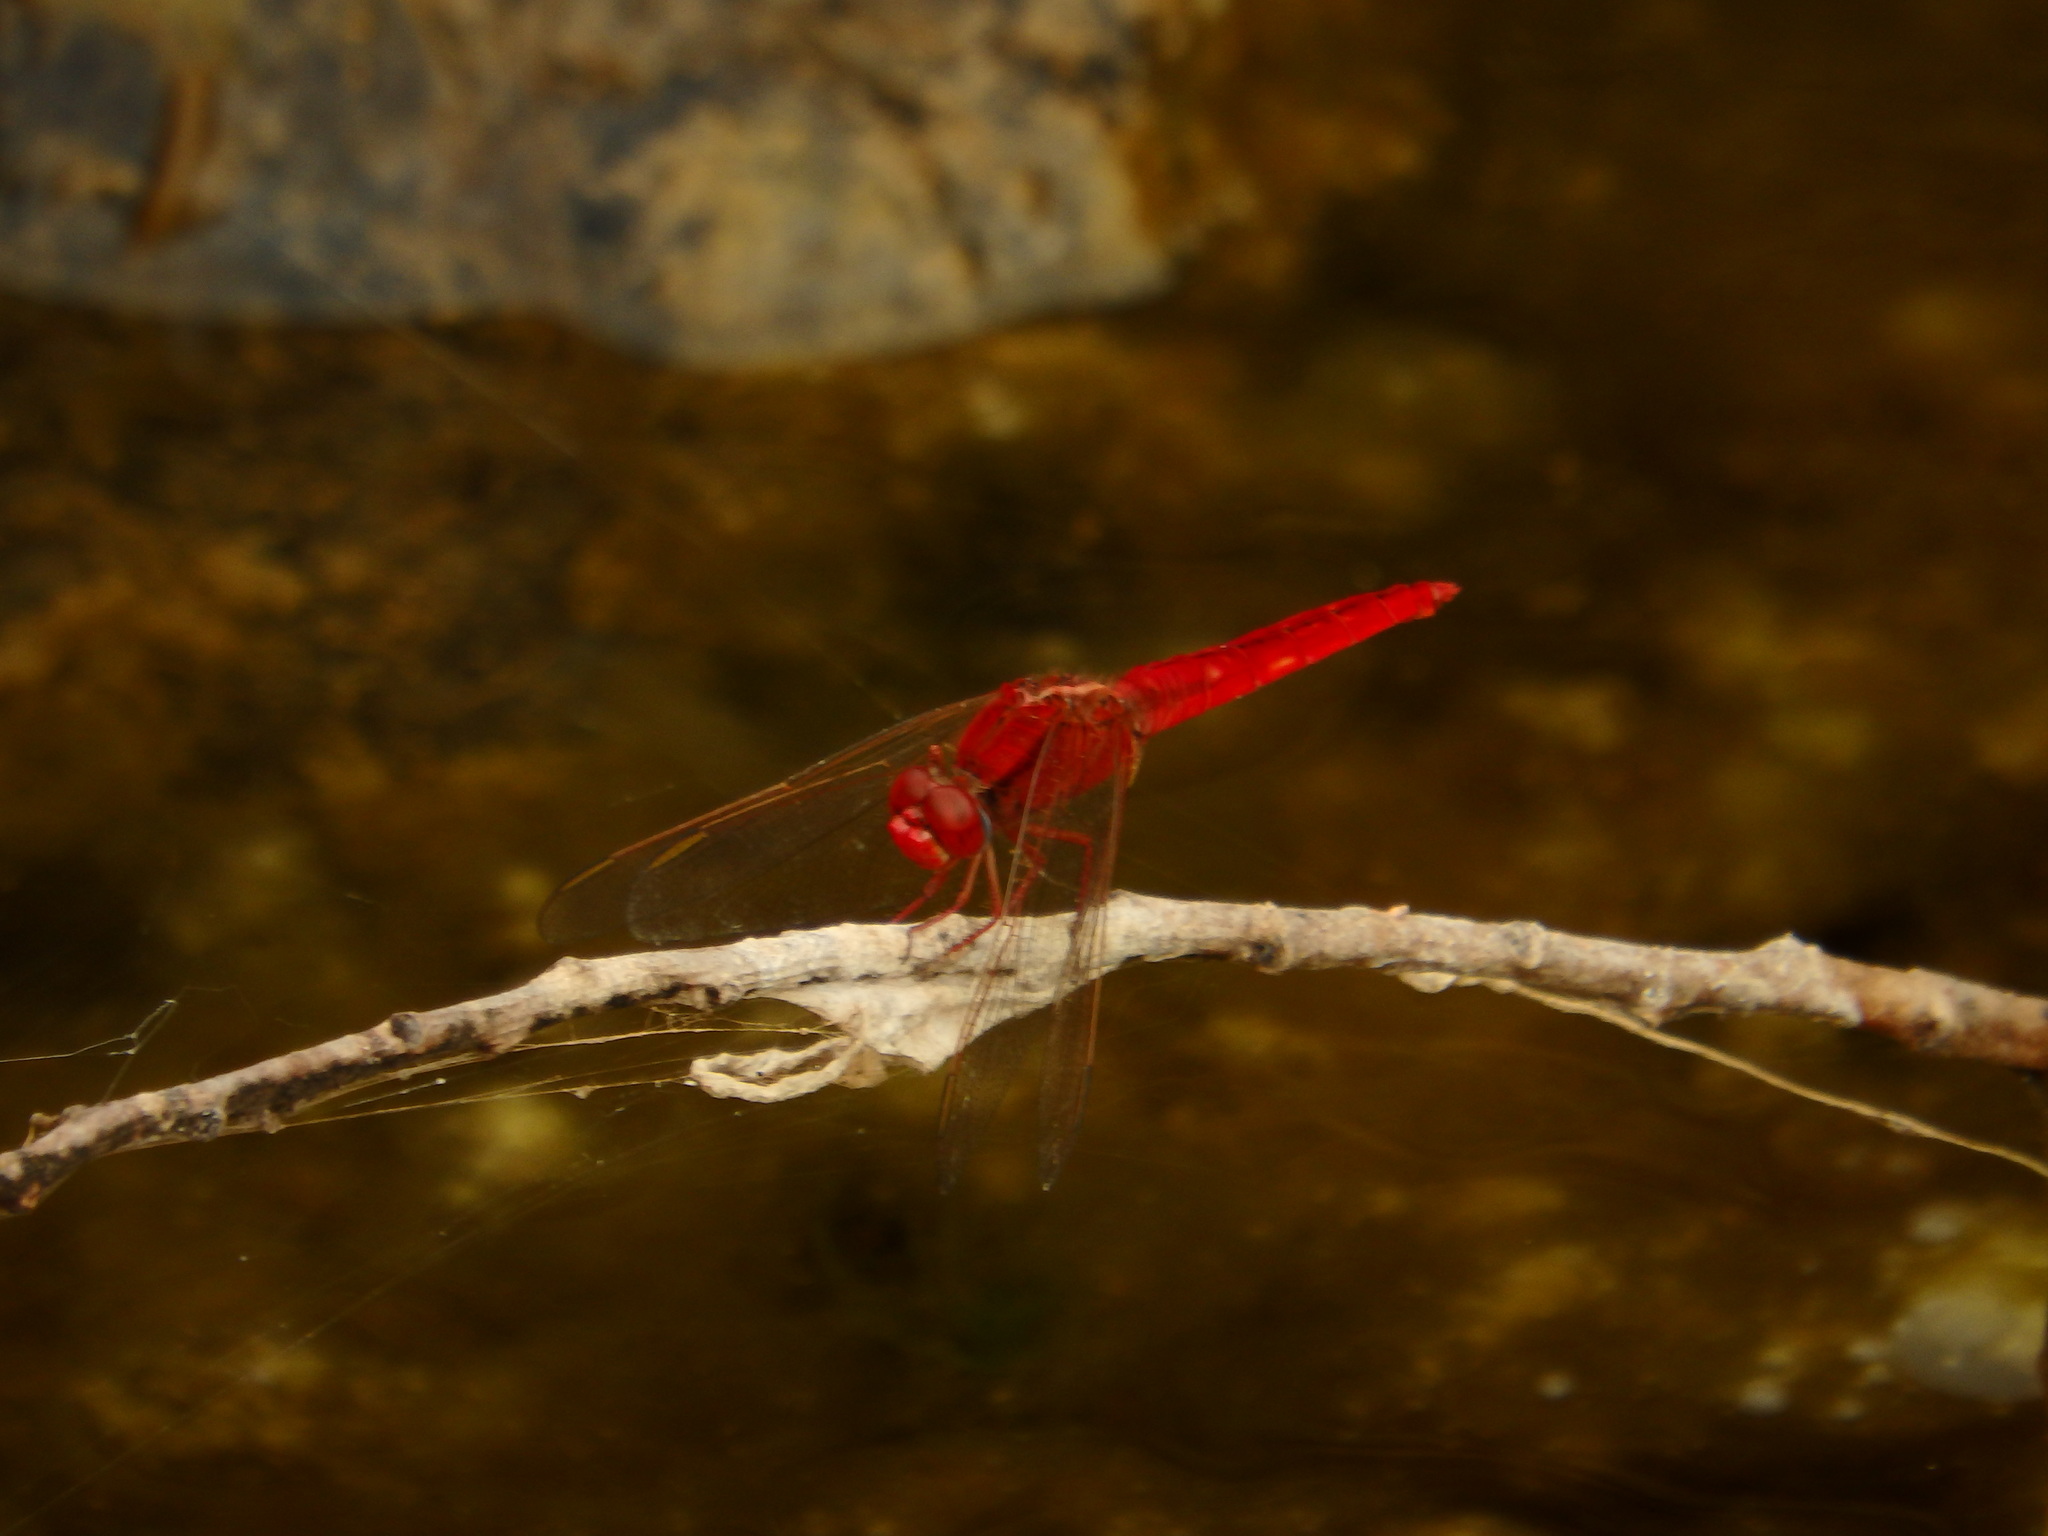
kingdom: Animalia
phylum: Arthropoda
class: Insecta
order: Odonata
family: Libellulidae
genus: Crocothemis
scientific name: Crocothemis erythraea
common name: Scarlet dragonfly
